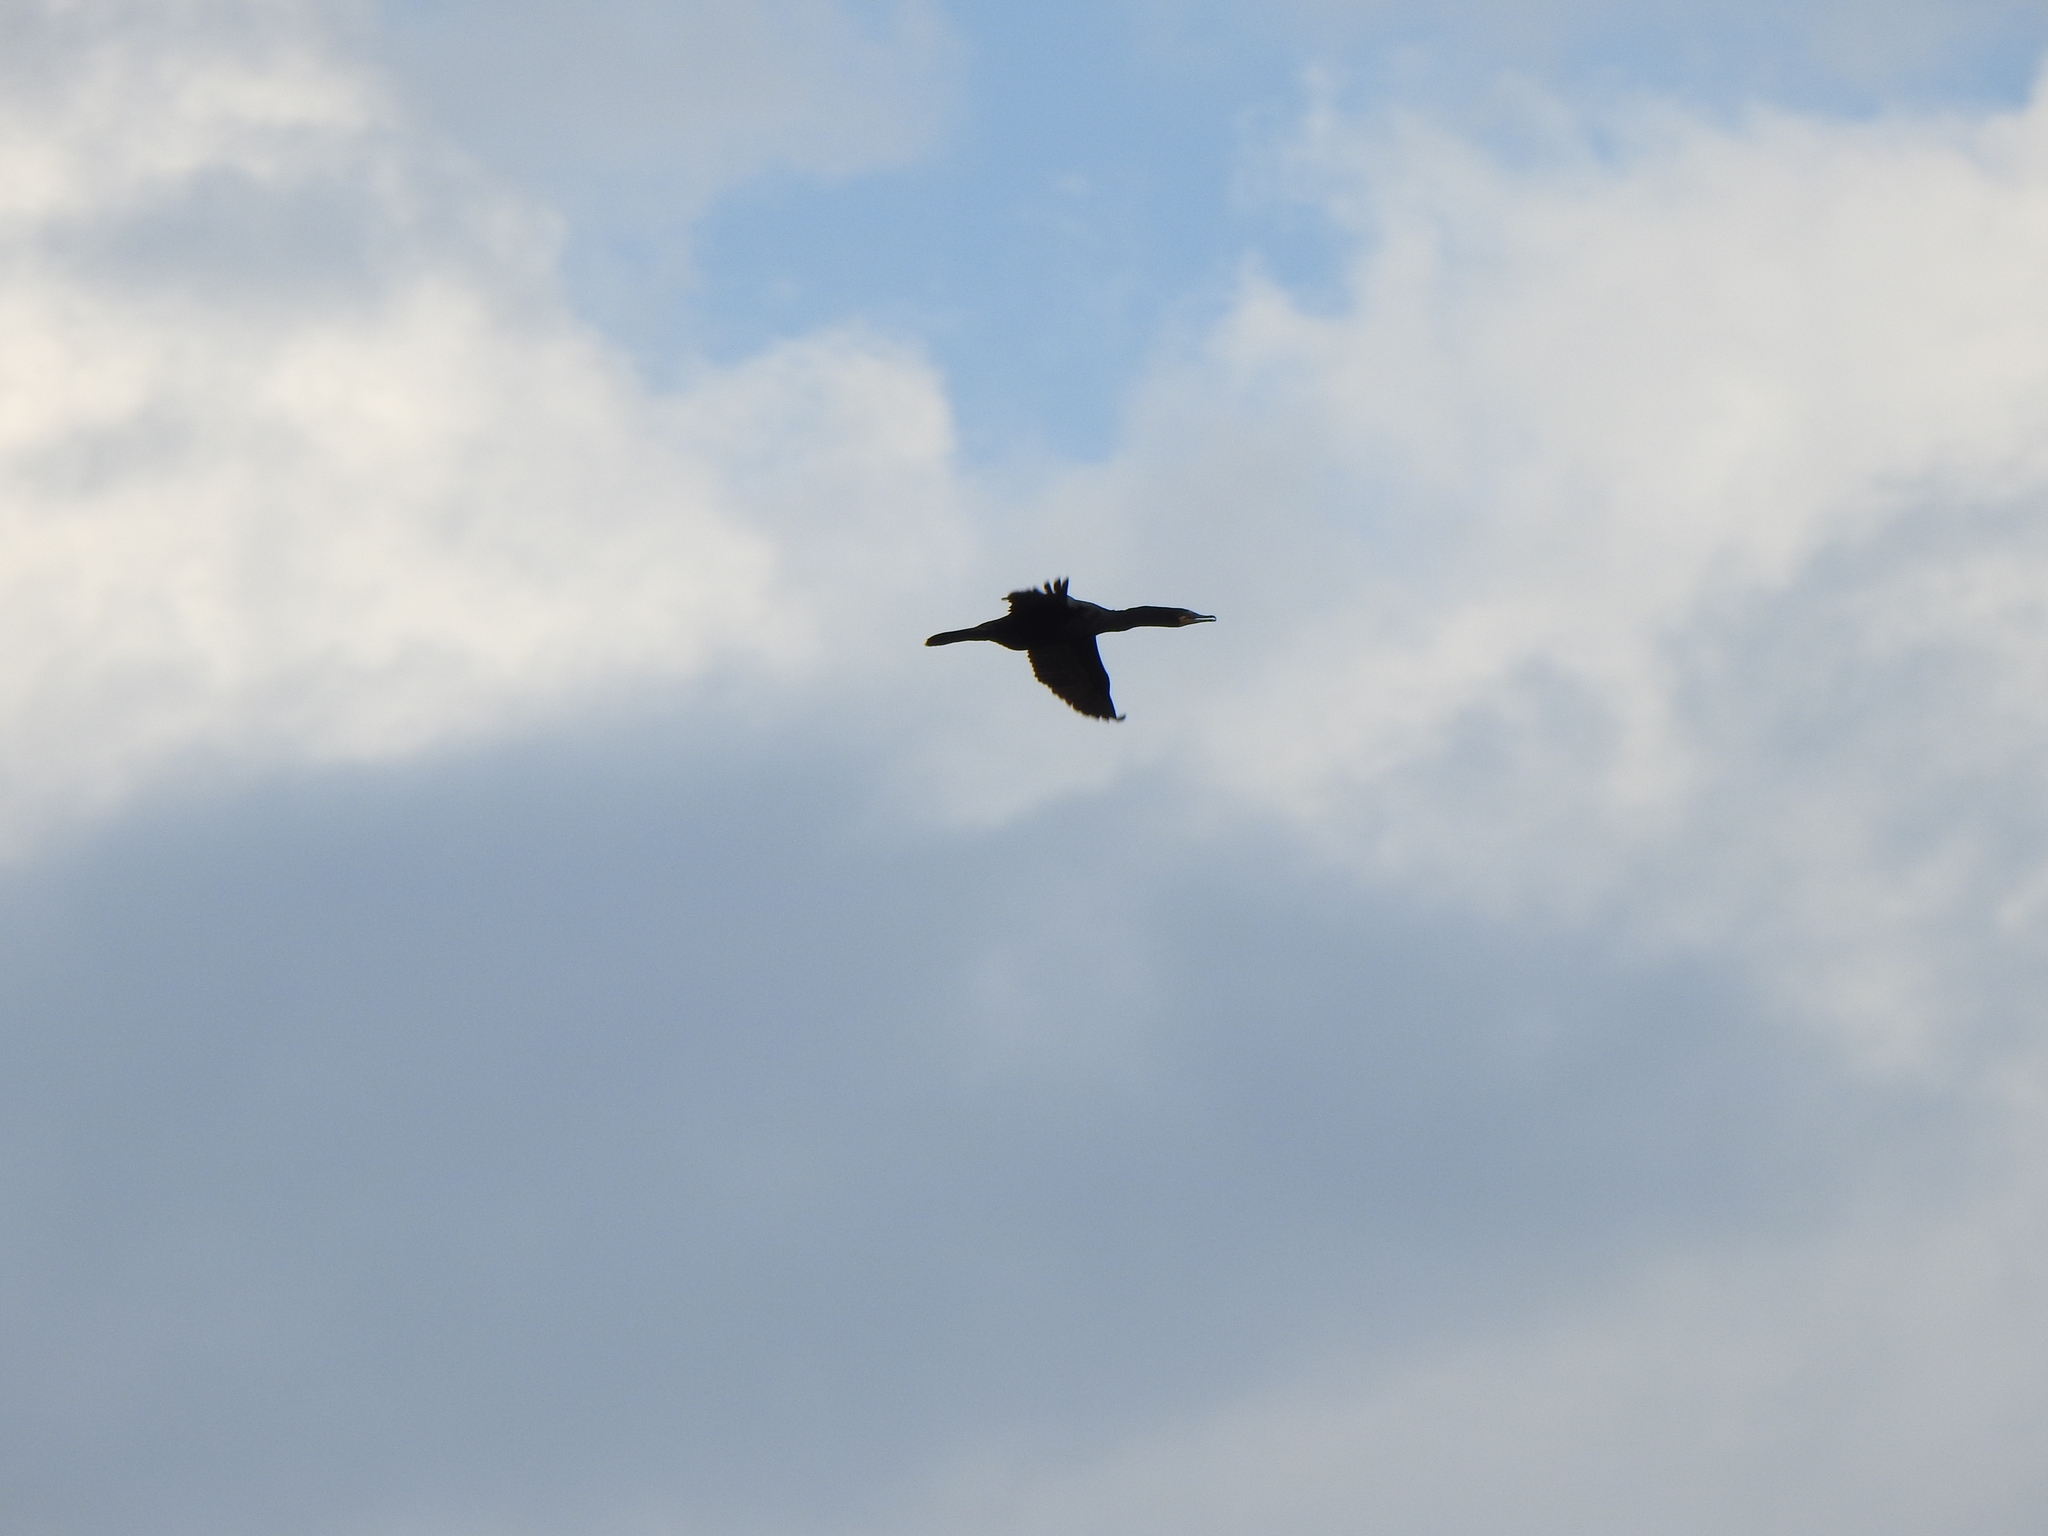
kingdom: Animalia
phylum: Chordata
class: Aves
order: Suliformes
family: Phalacrocoracidae
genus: Phalacrocorax
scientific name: Phalacrocorax auritus
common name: Double-crested cormorant
